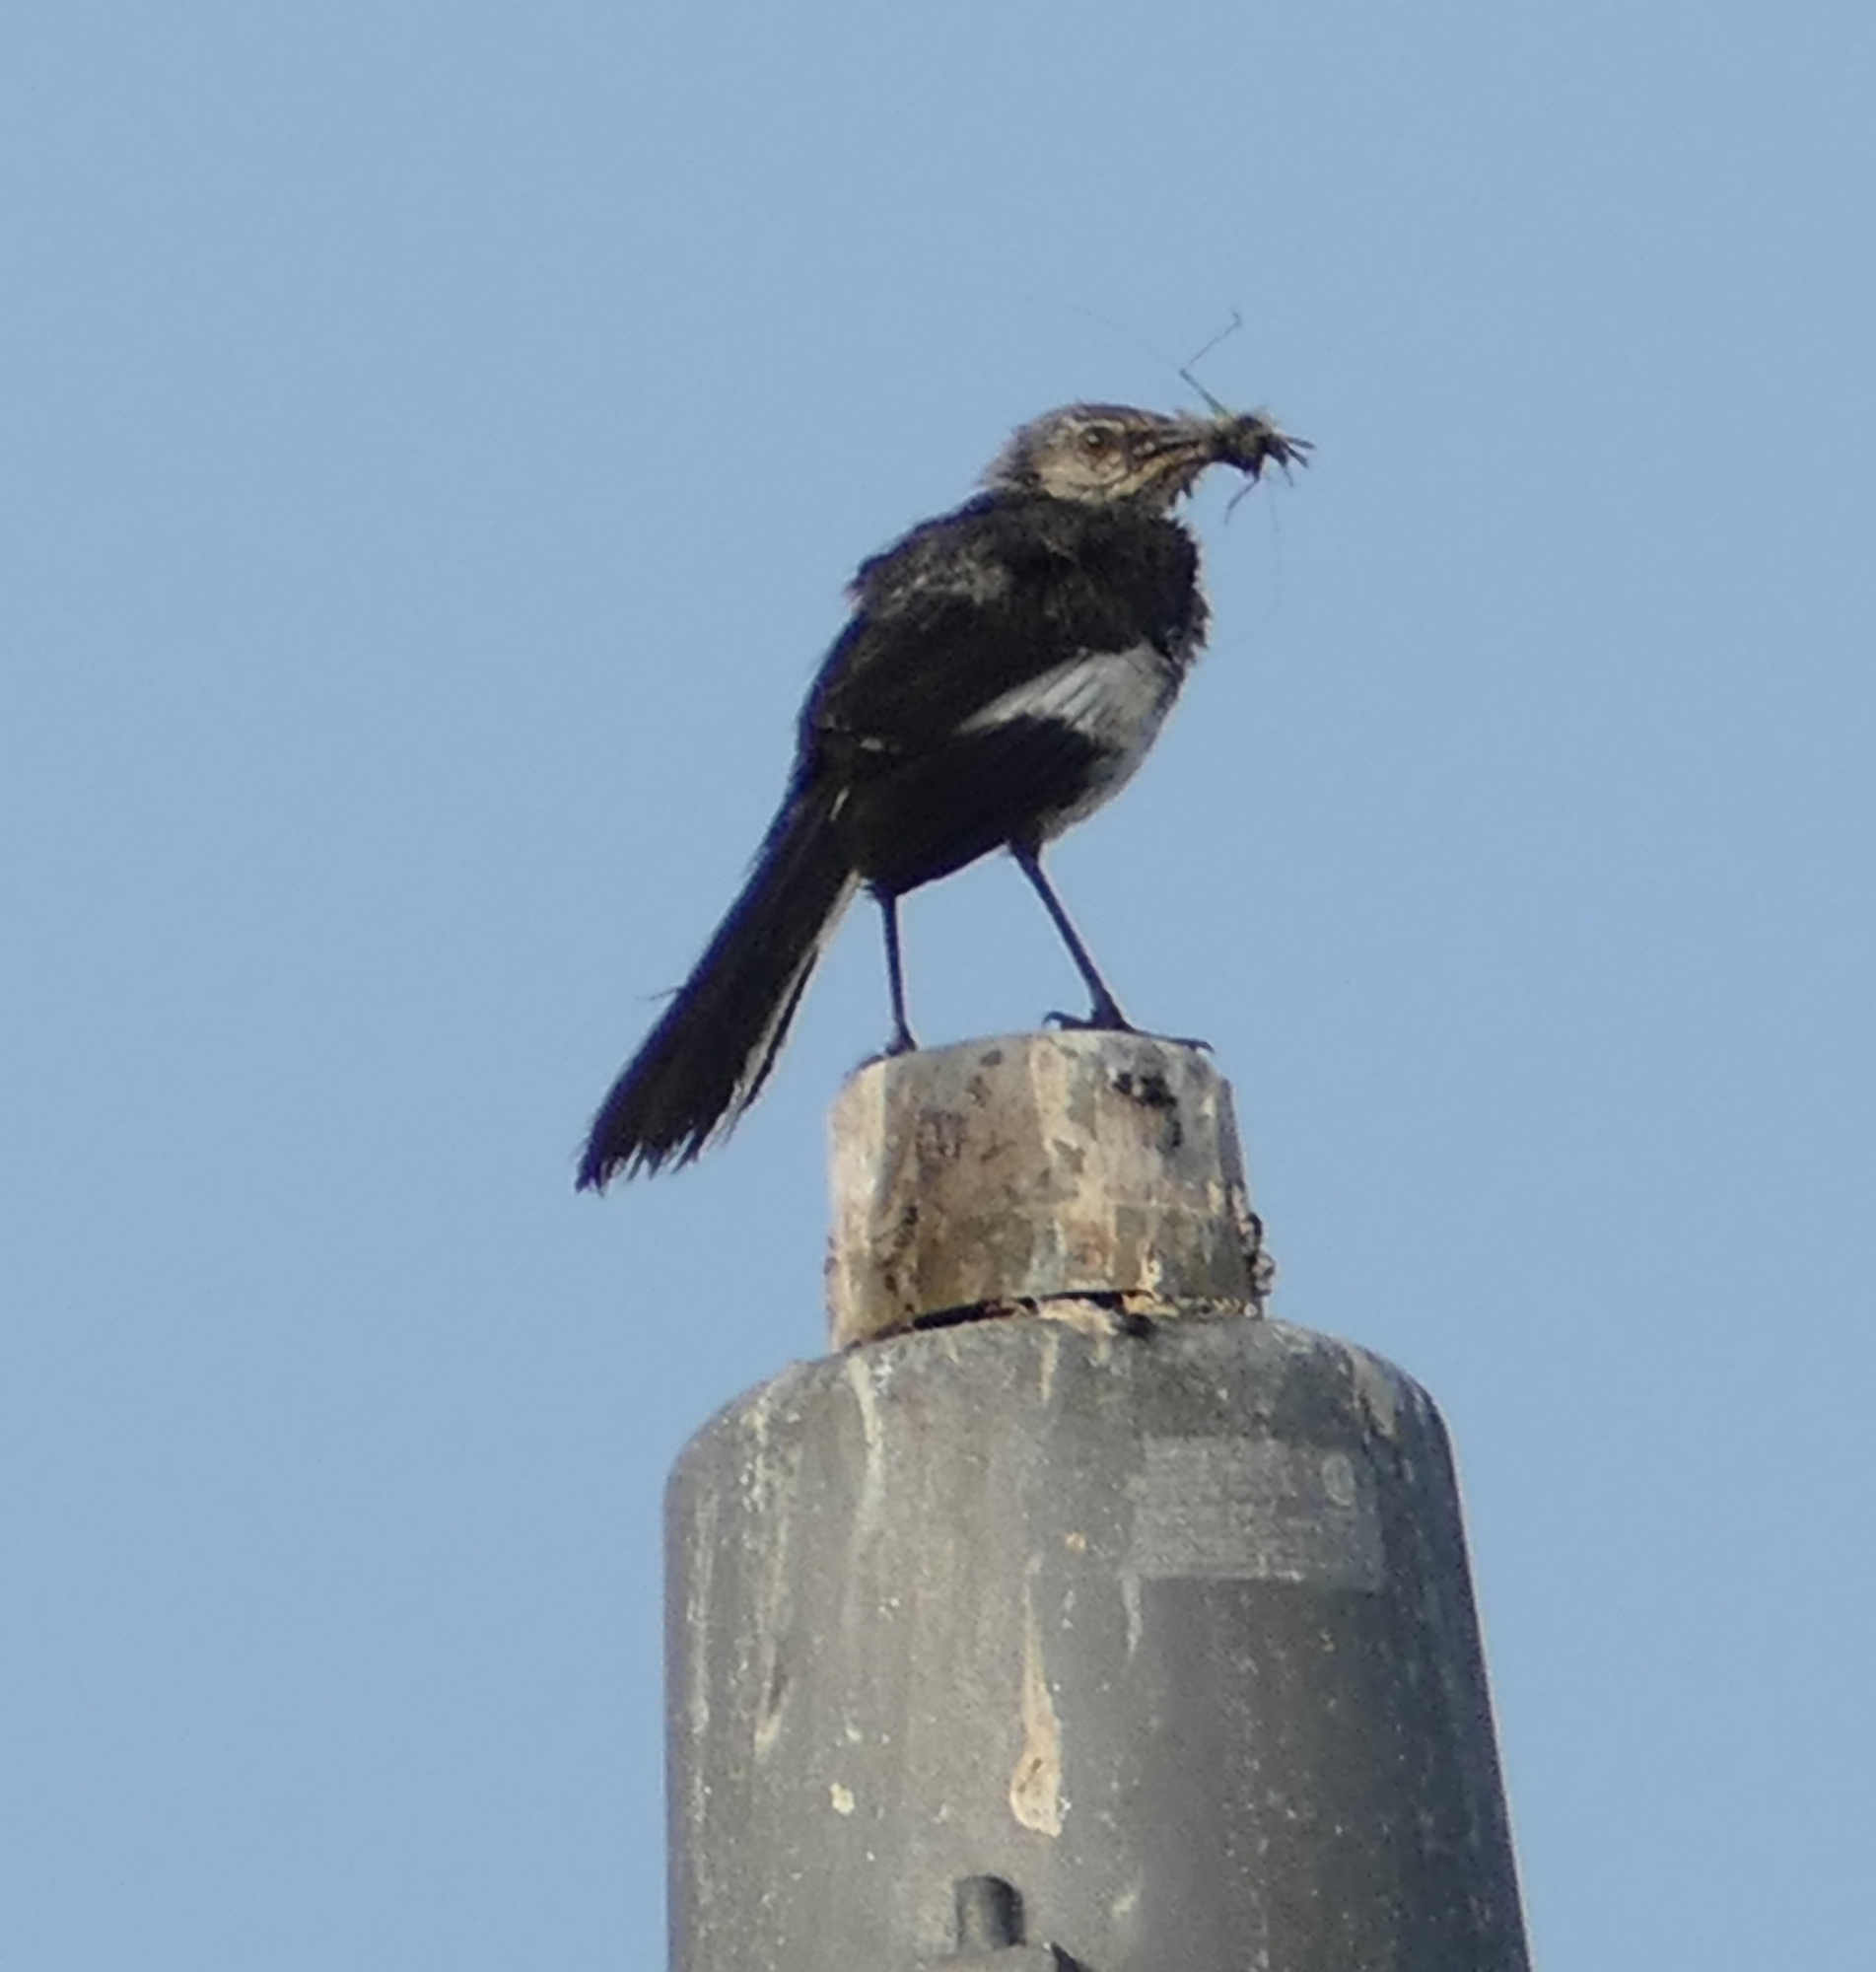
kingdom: Animalia
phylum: Chordata
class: Aves
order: Passeriformes
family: Mimidae
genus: Mimus
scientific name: Mimus polyglottos
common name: Northern mockingbird
